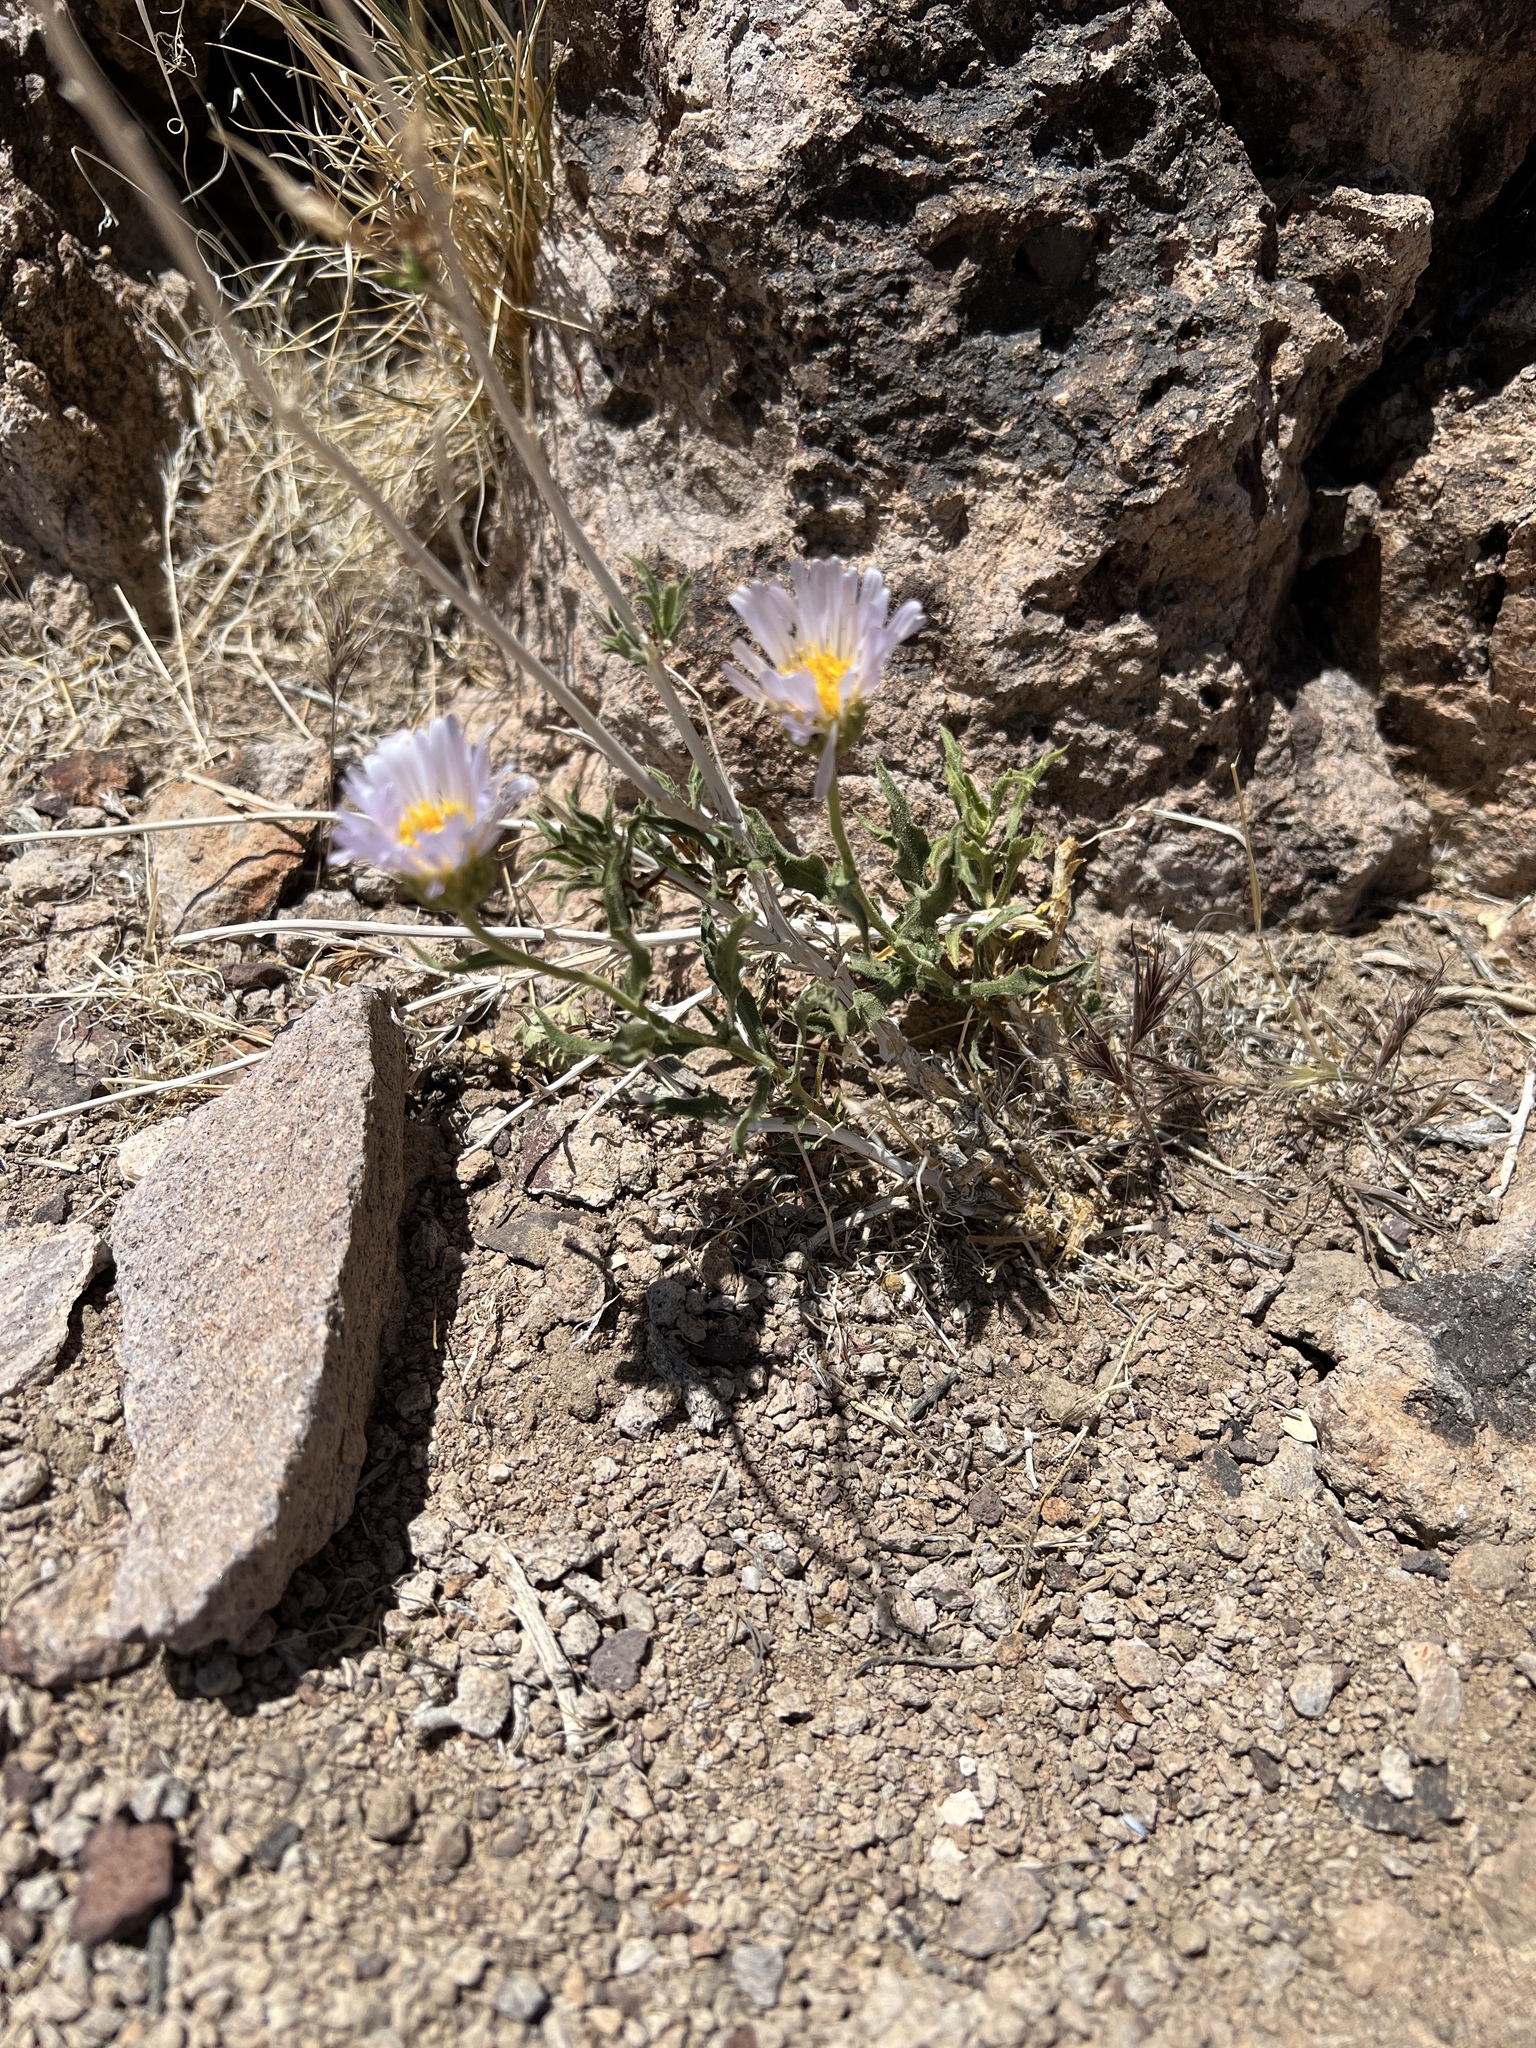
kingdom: Plantae
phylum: Tracheophyta
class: Magnoliopsida
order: Asterales
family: Asteraceae
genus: Xylorhiza
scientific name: Xylorhiza tortifolia
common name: Hurt-leaf woody-aster
